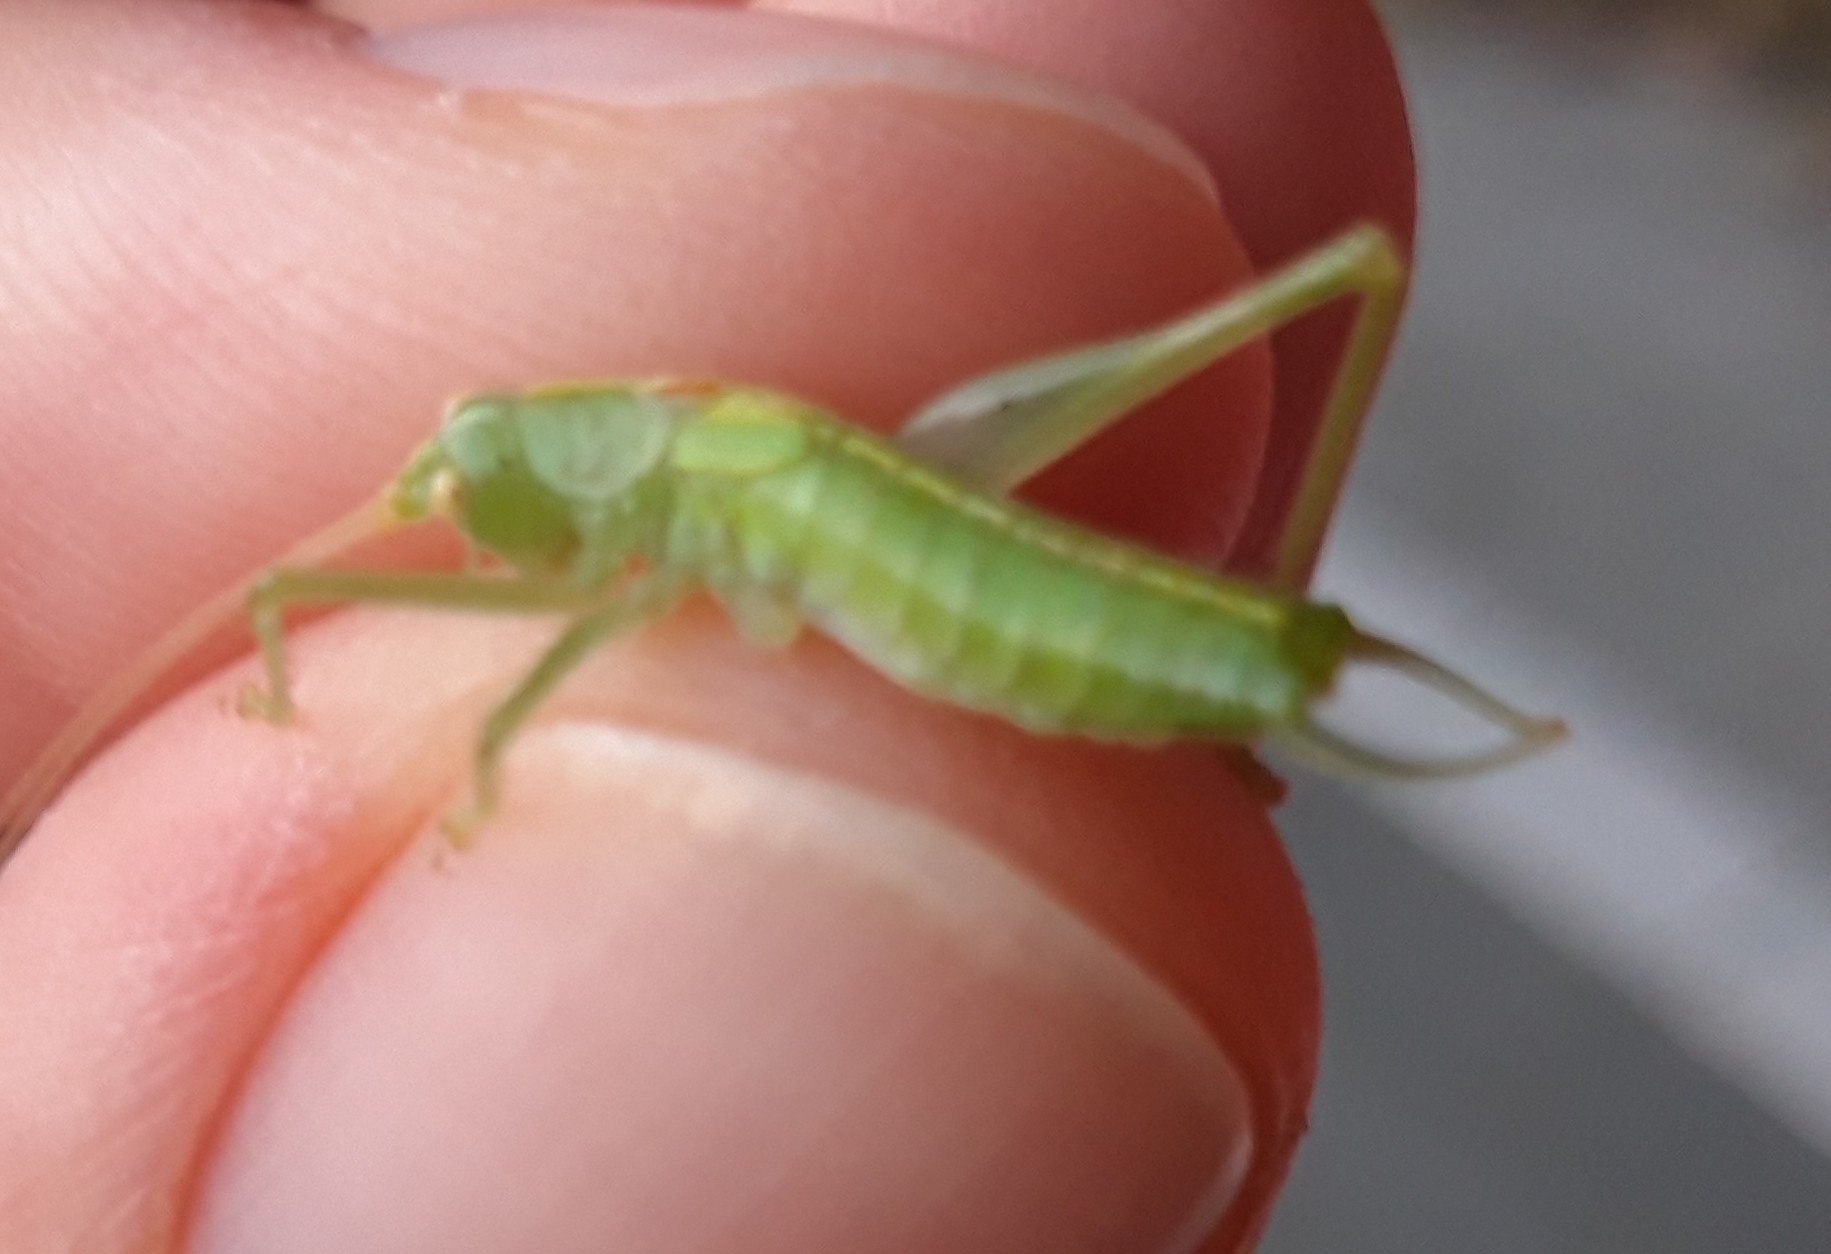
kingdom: Animalia
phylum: Arthropoda
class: Insecta
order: Orthoptera
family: Tettigoniidae
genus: Meconema
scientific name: Meconema meridionale
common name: Southern oak bush-cricket
